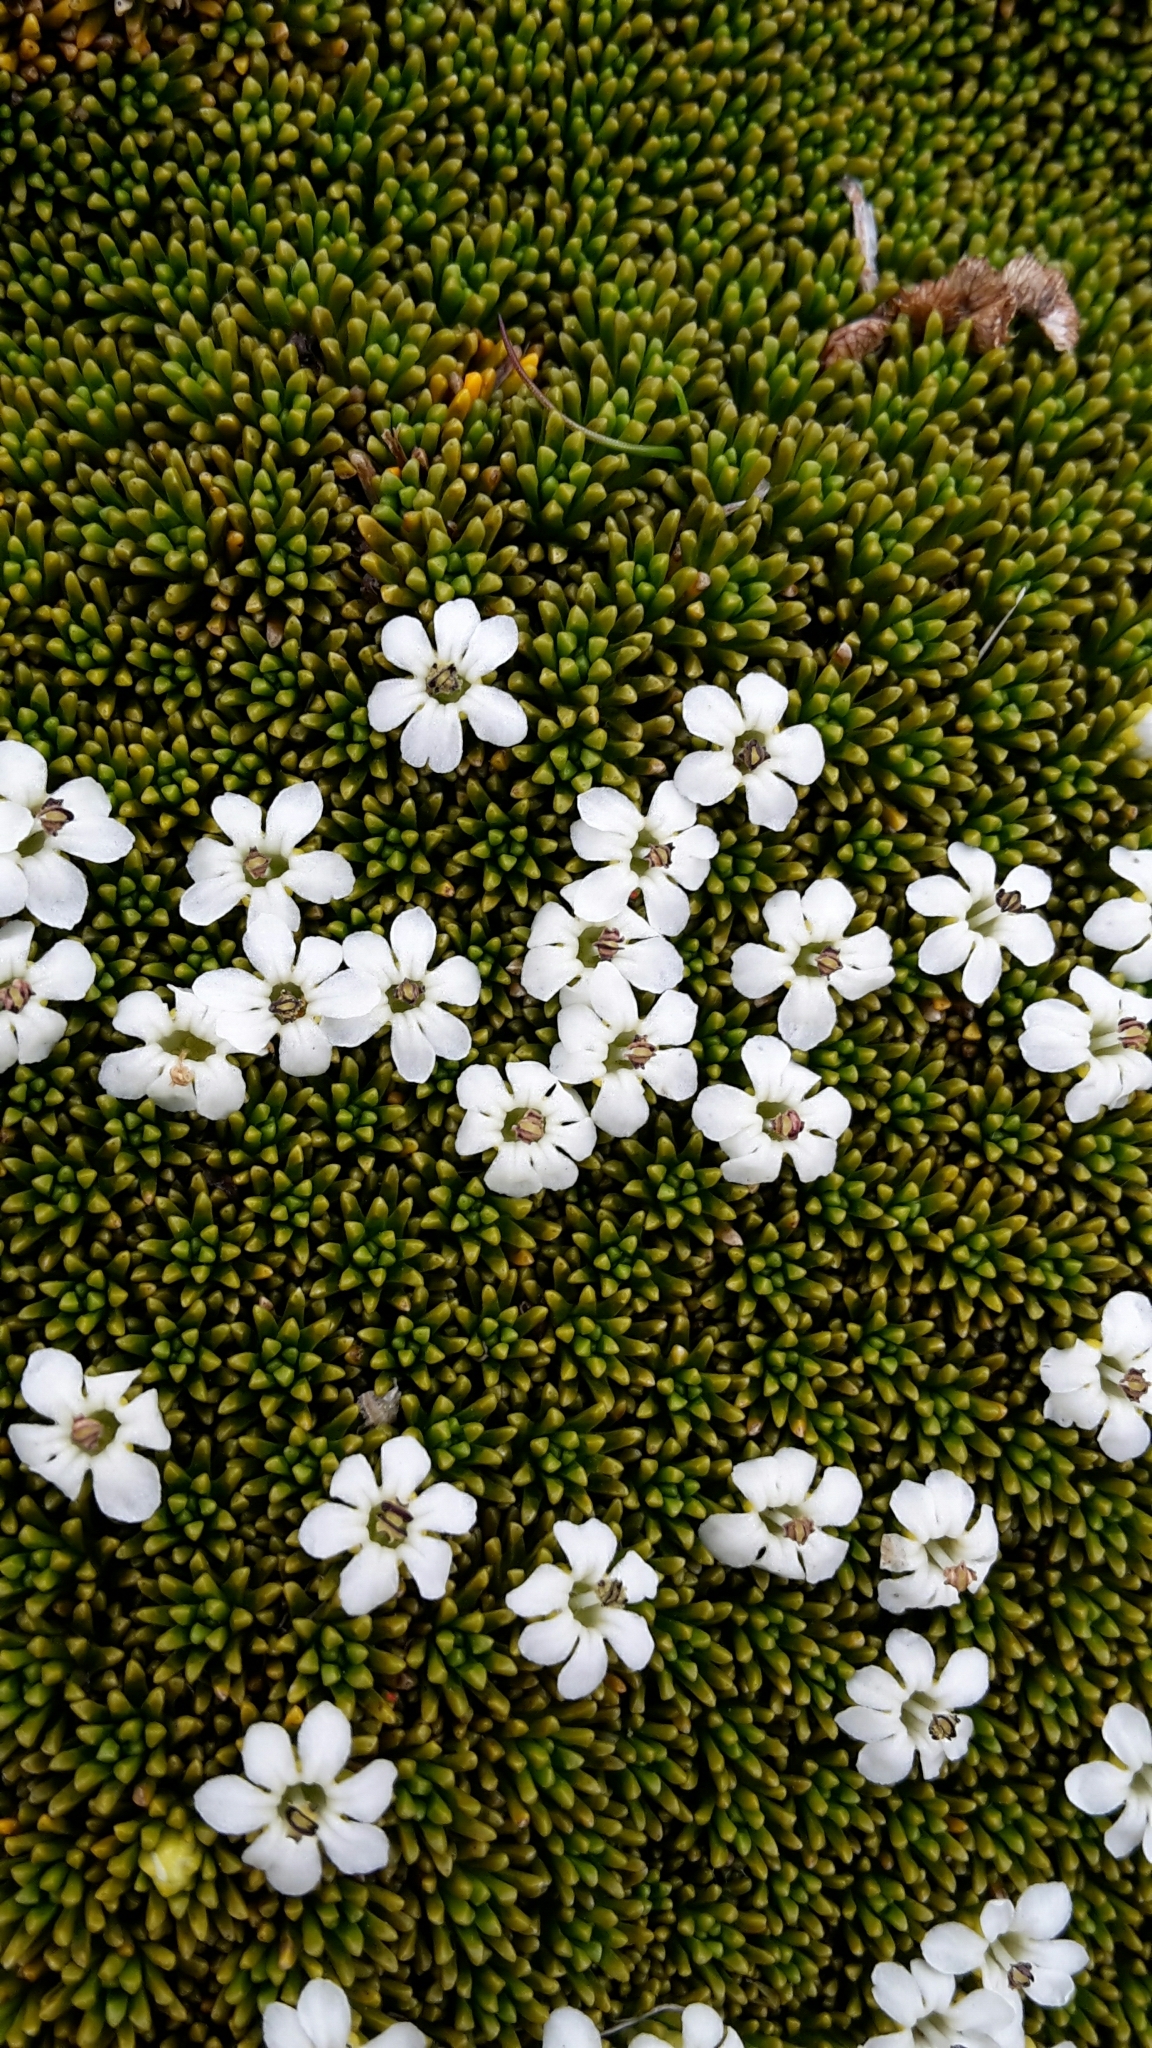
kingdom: Plantae
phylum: Tracheophyta
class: Magnoliopsida
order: Asterales
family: Stylidiaceae
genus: Phyllachne
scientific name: Phyllachne colensoi
